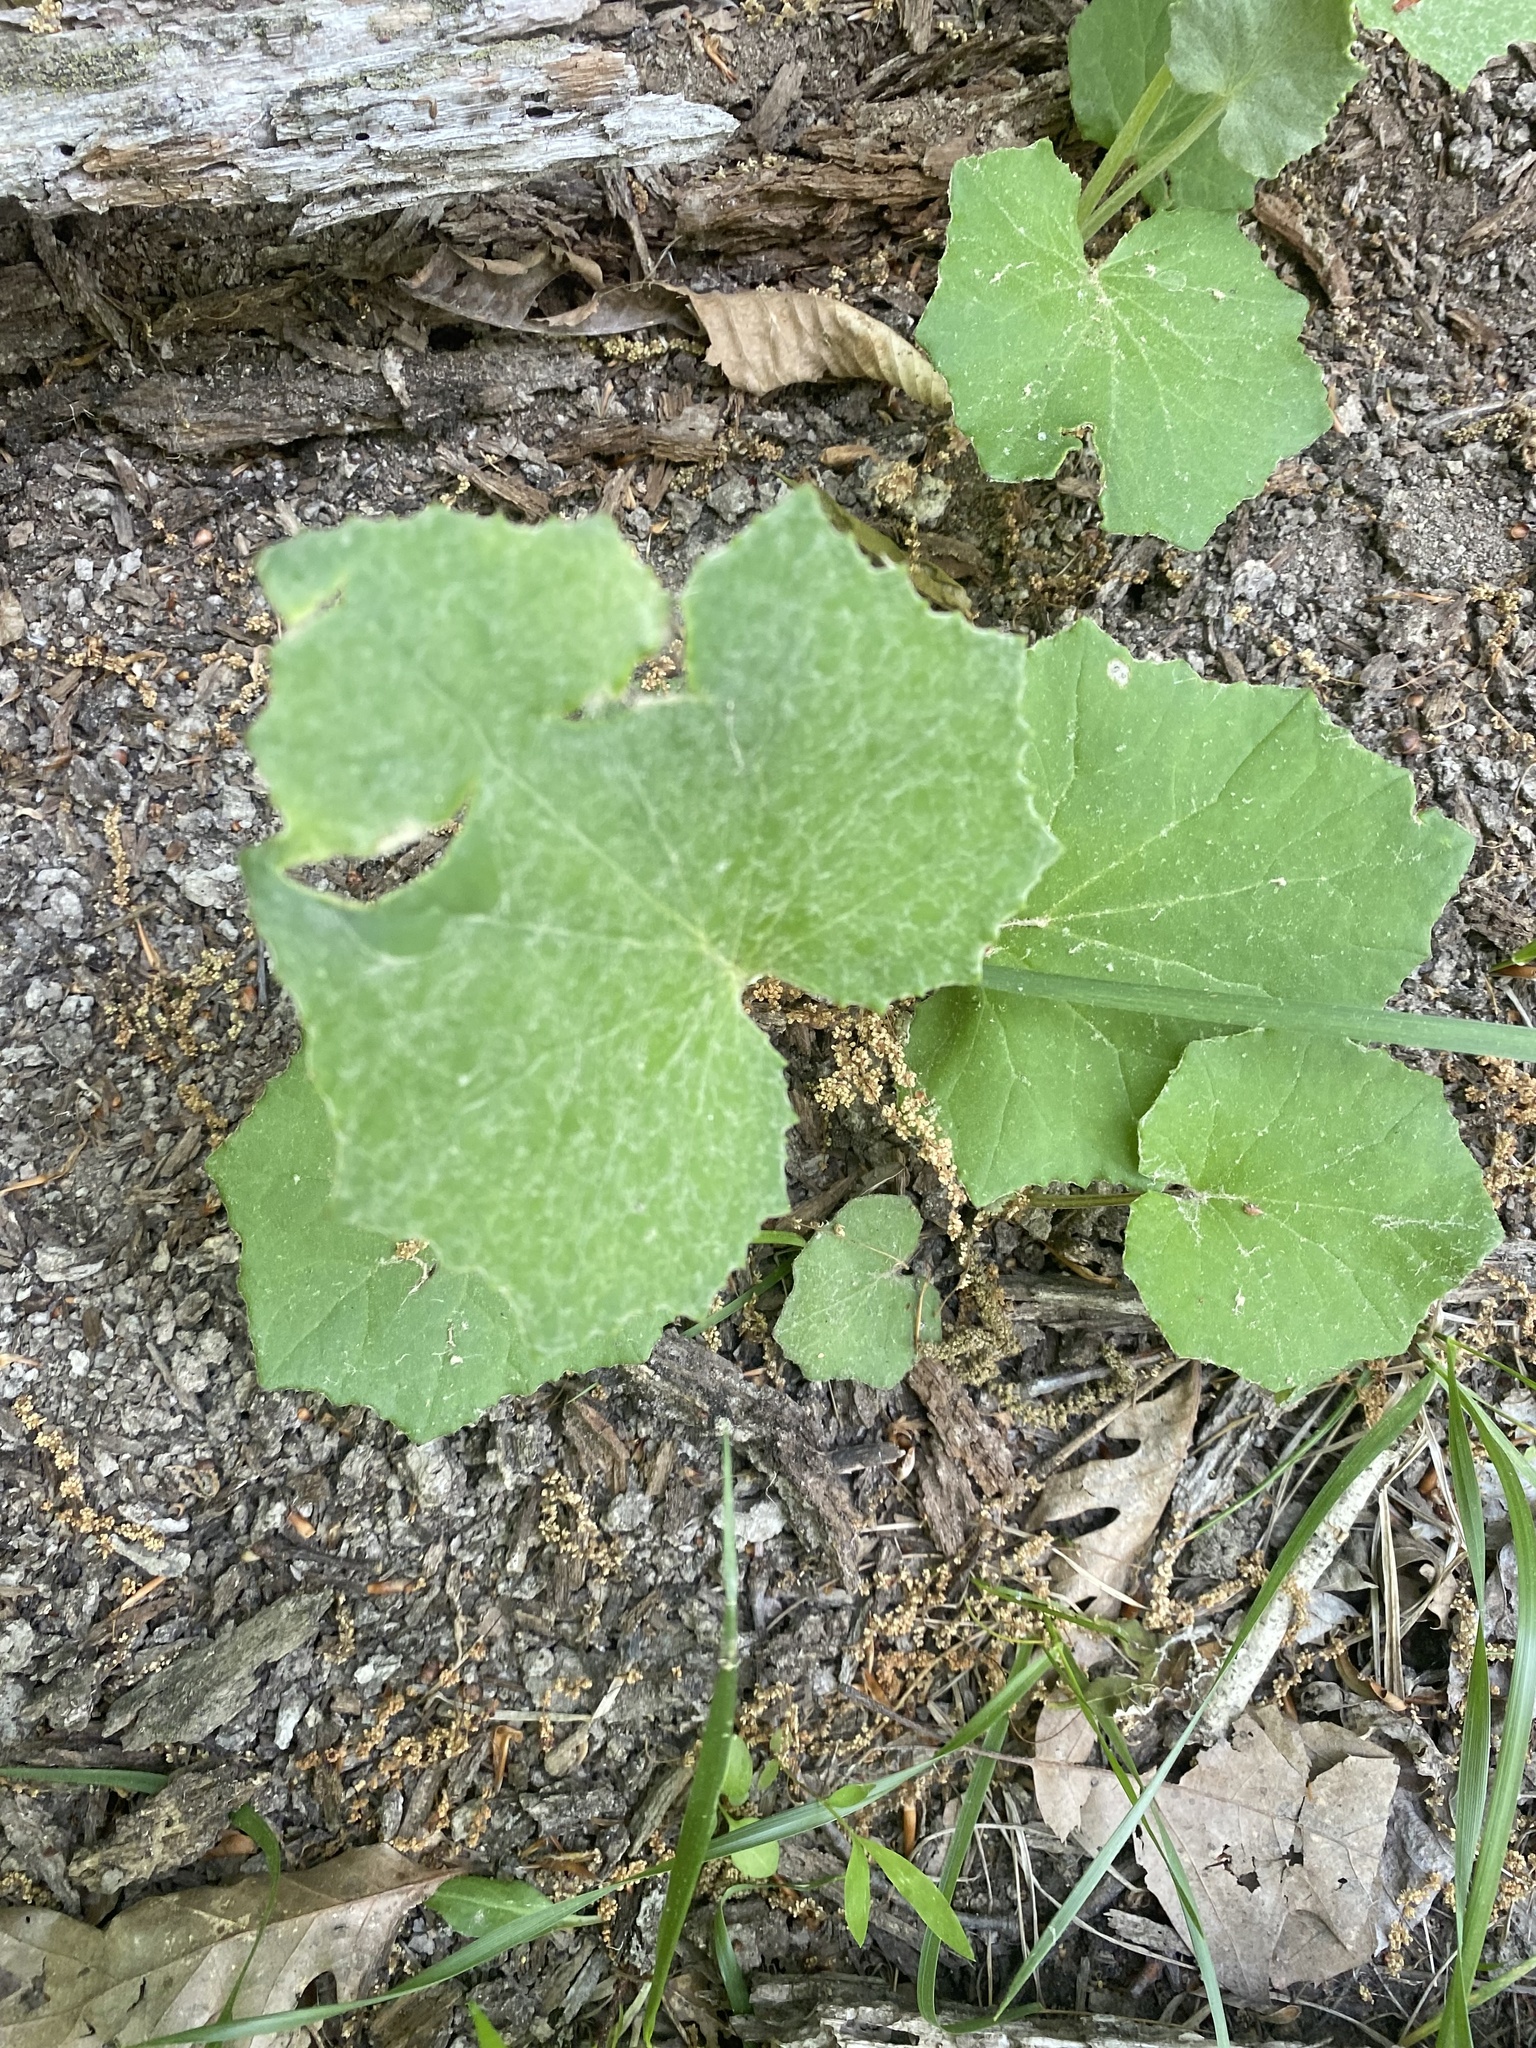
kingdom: Plantae
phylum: Tracheophyta
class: Magnoliopsida
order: Asterales
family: Asteraceae
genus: Tussilago
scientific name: Tussilago farfara
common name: Coltsfoot
